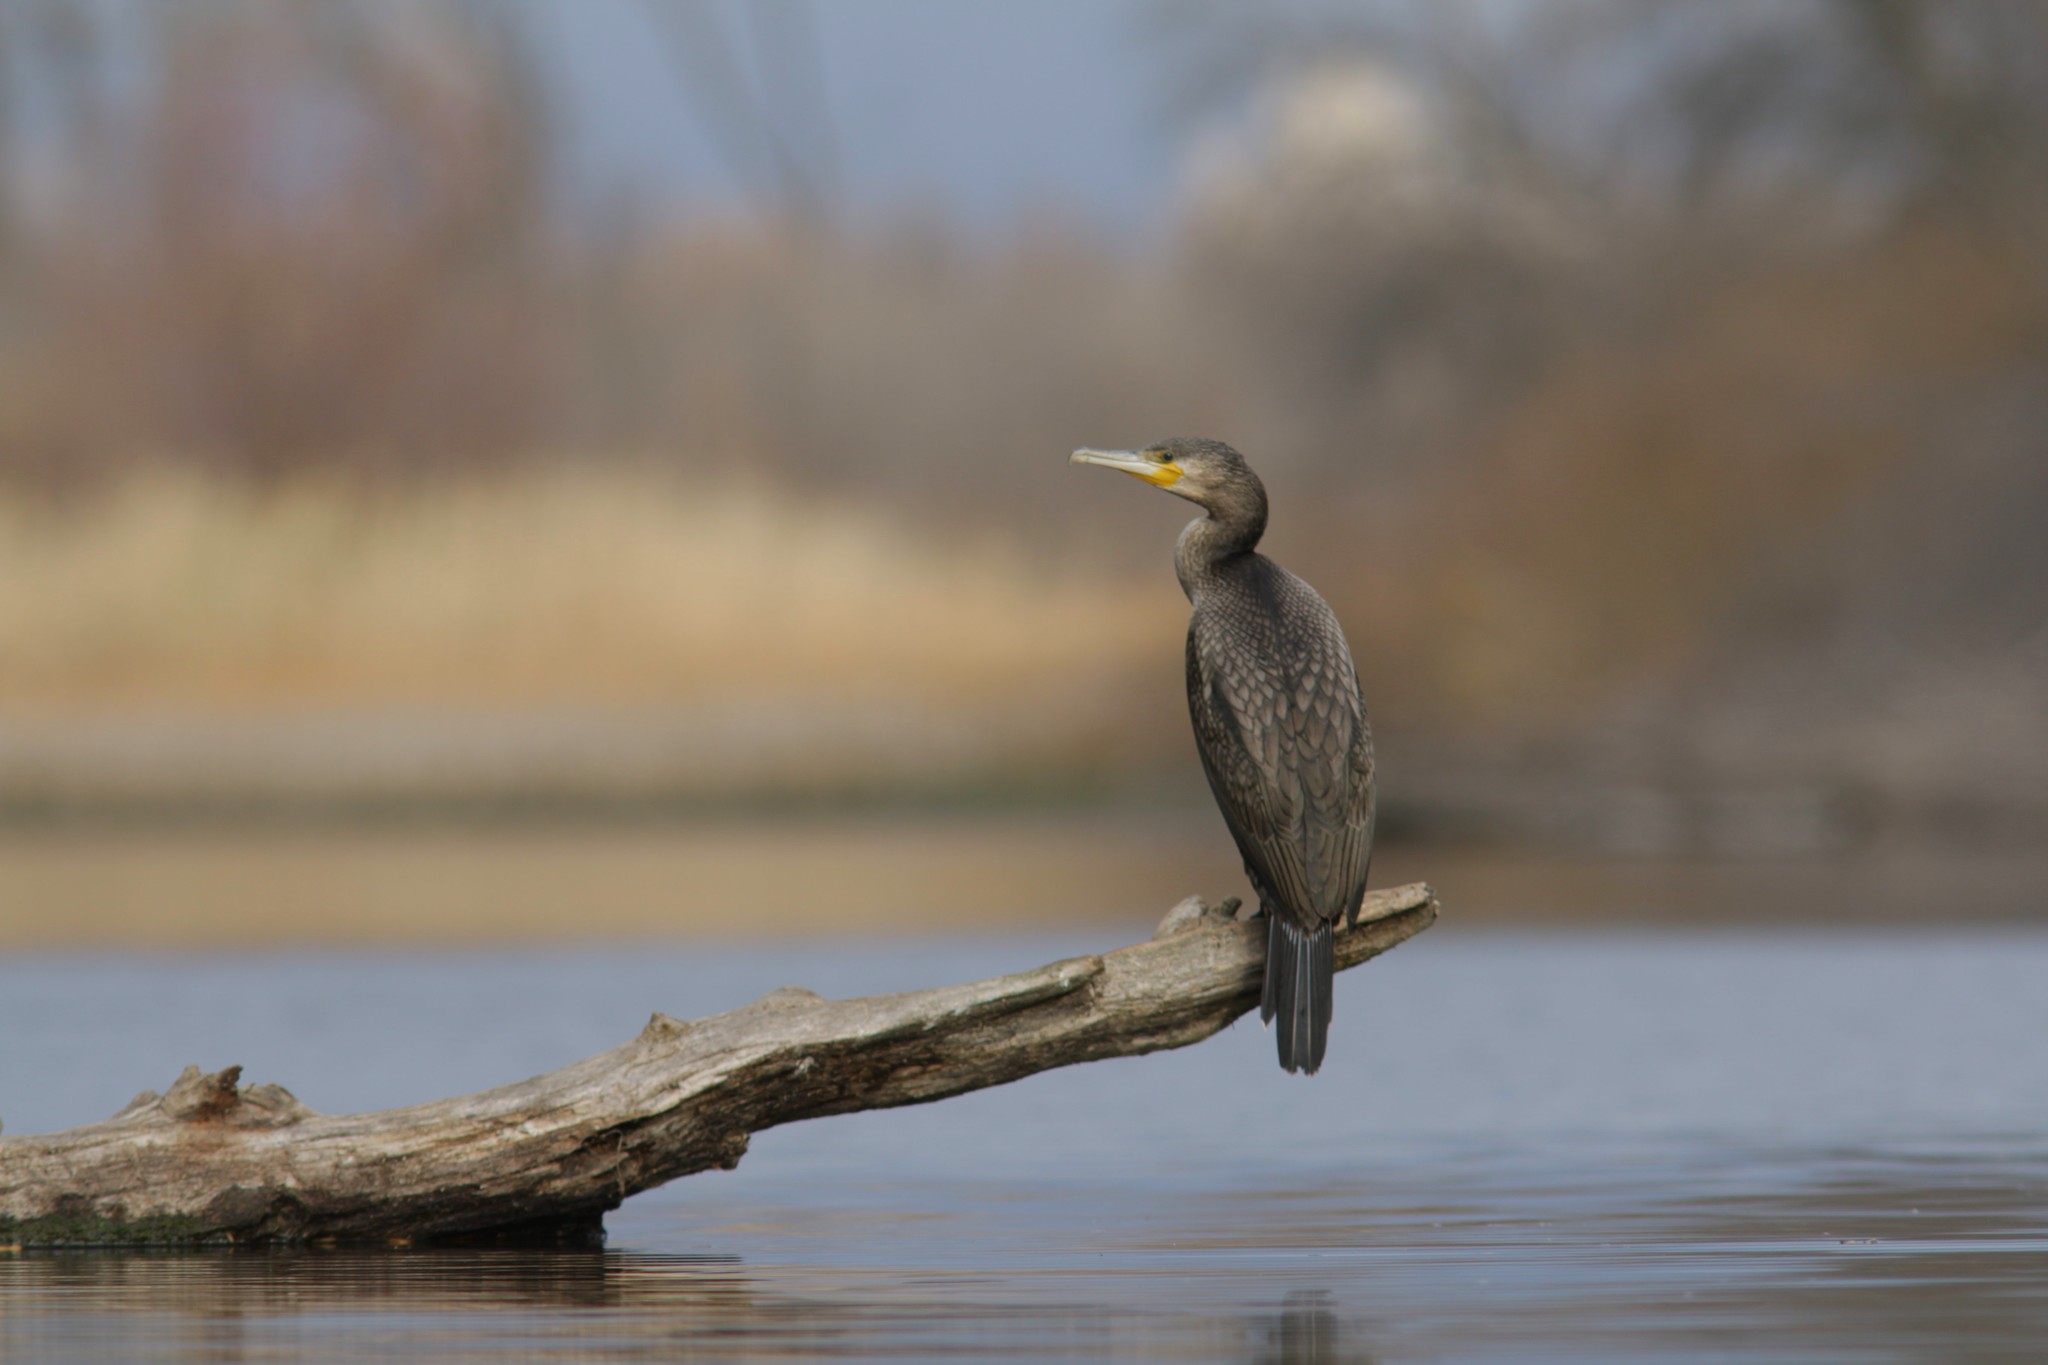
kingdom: Animalia
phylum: Chordata
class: Aves
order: Suliformes
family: Phalacrocoracidae
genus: Phalacrocorax
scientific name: Phalacrocorax carbo
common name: Great cormorant
